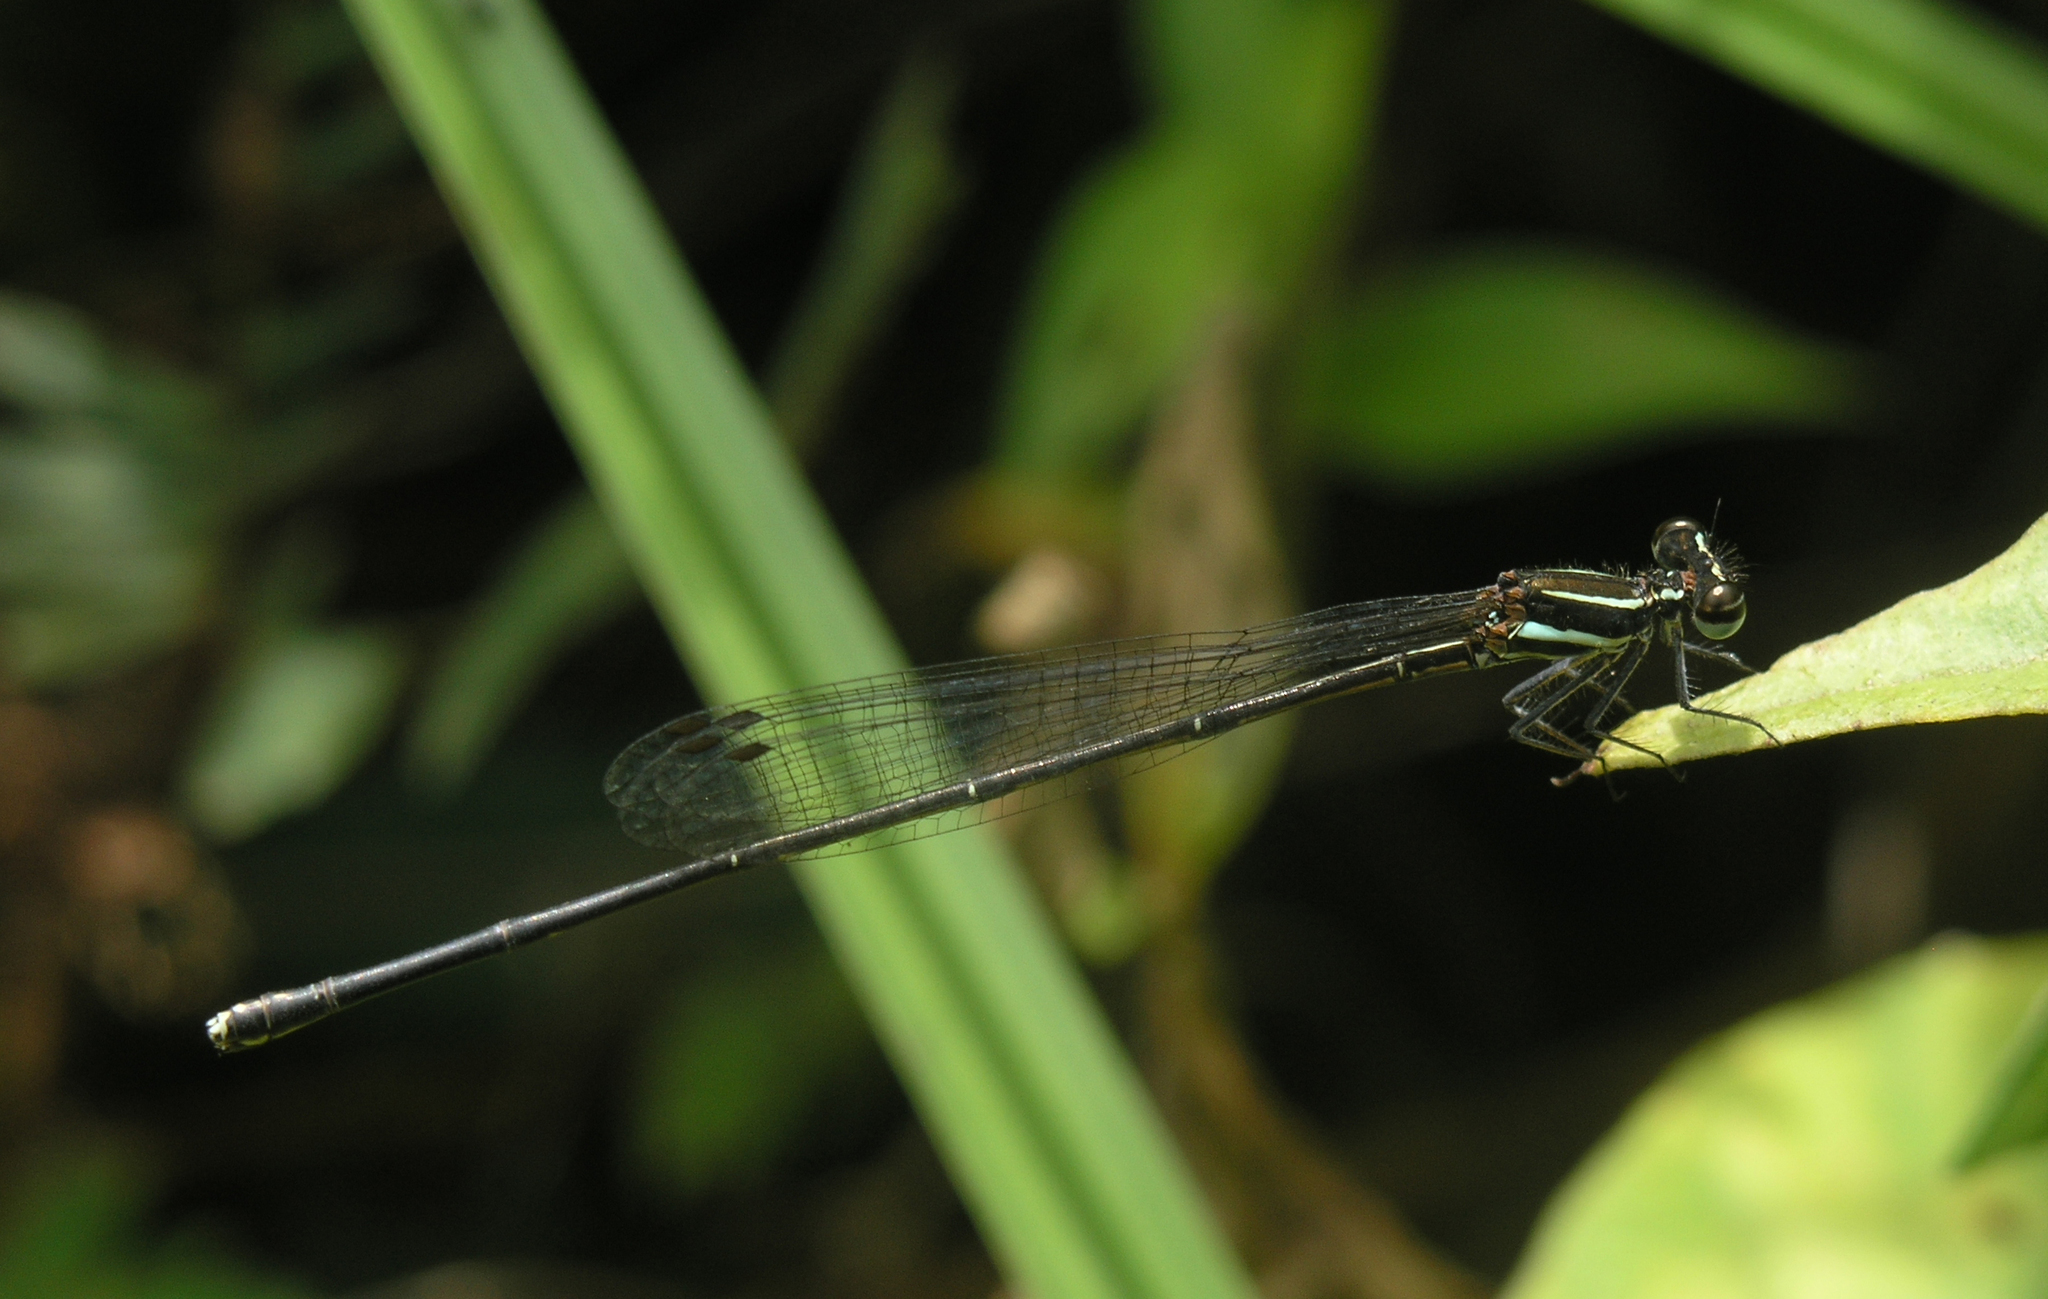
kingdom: Animalia
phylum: Arthropoda
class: Insecta
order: Odonata
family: Platycnemididae
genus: Prodasineura
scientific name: Prodasineura hoffmanni
